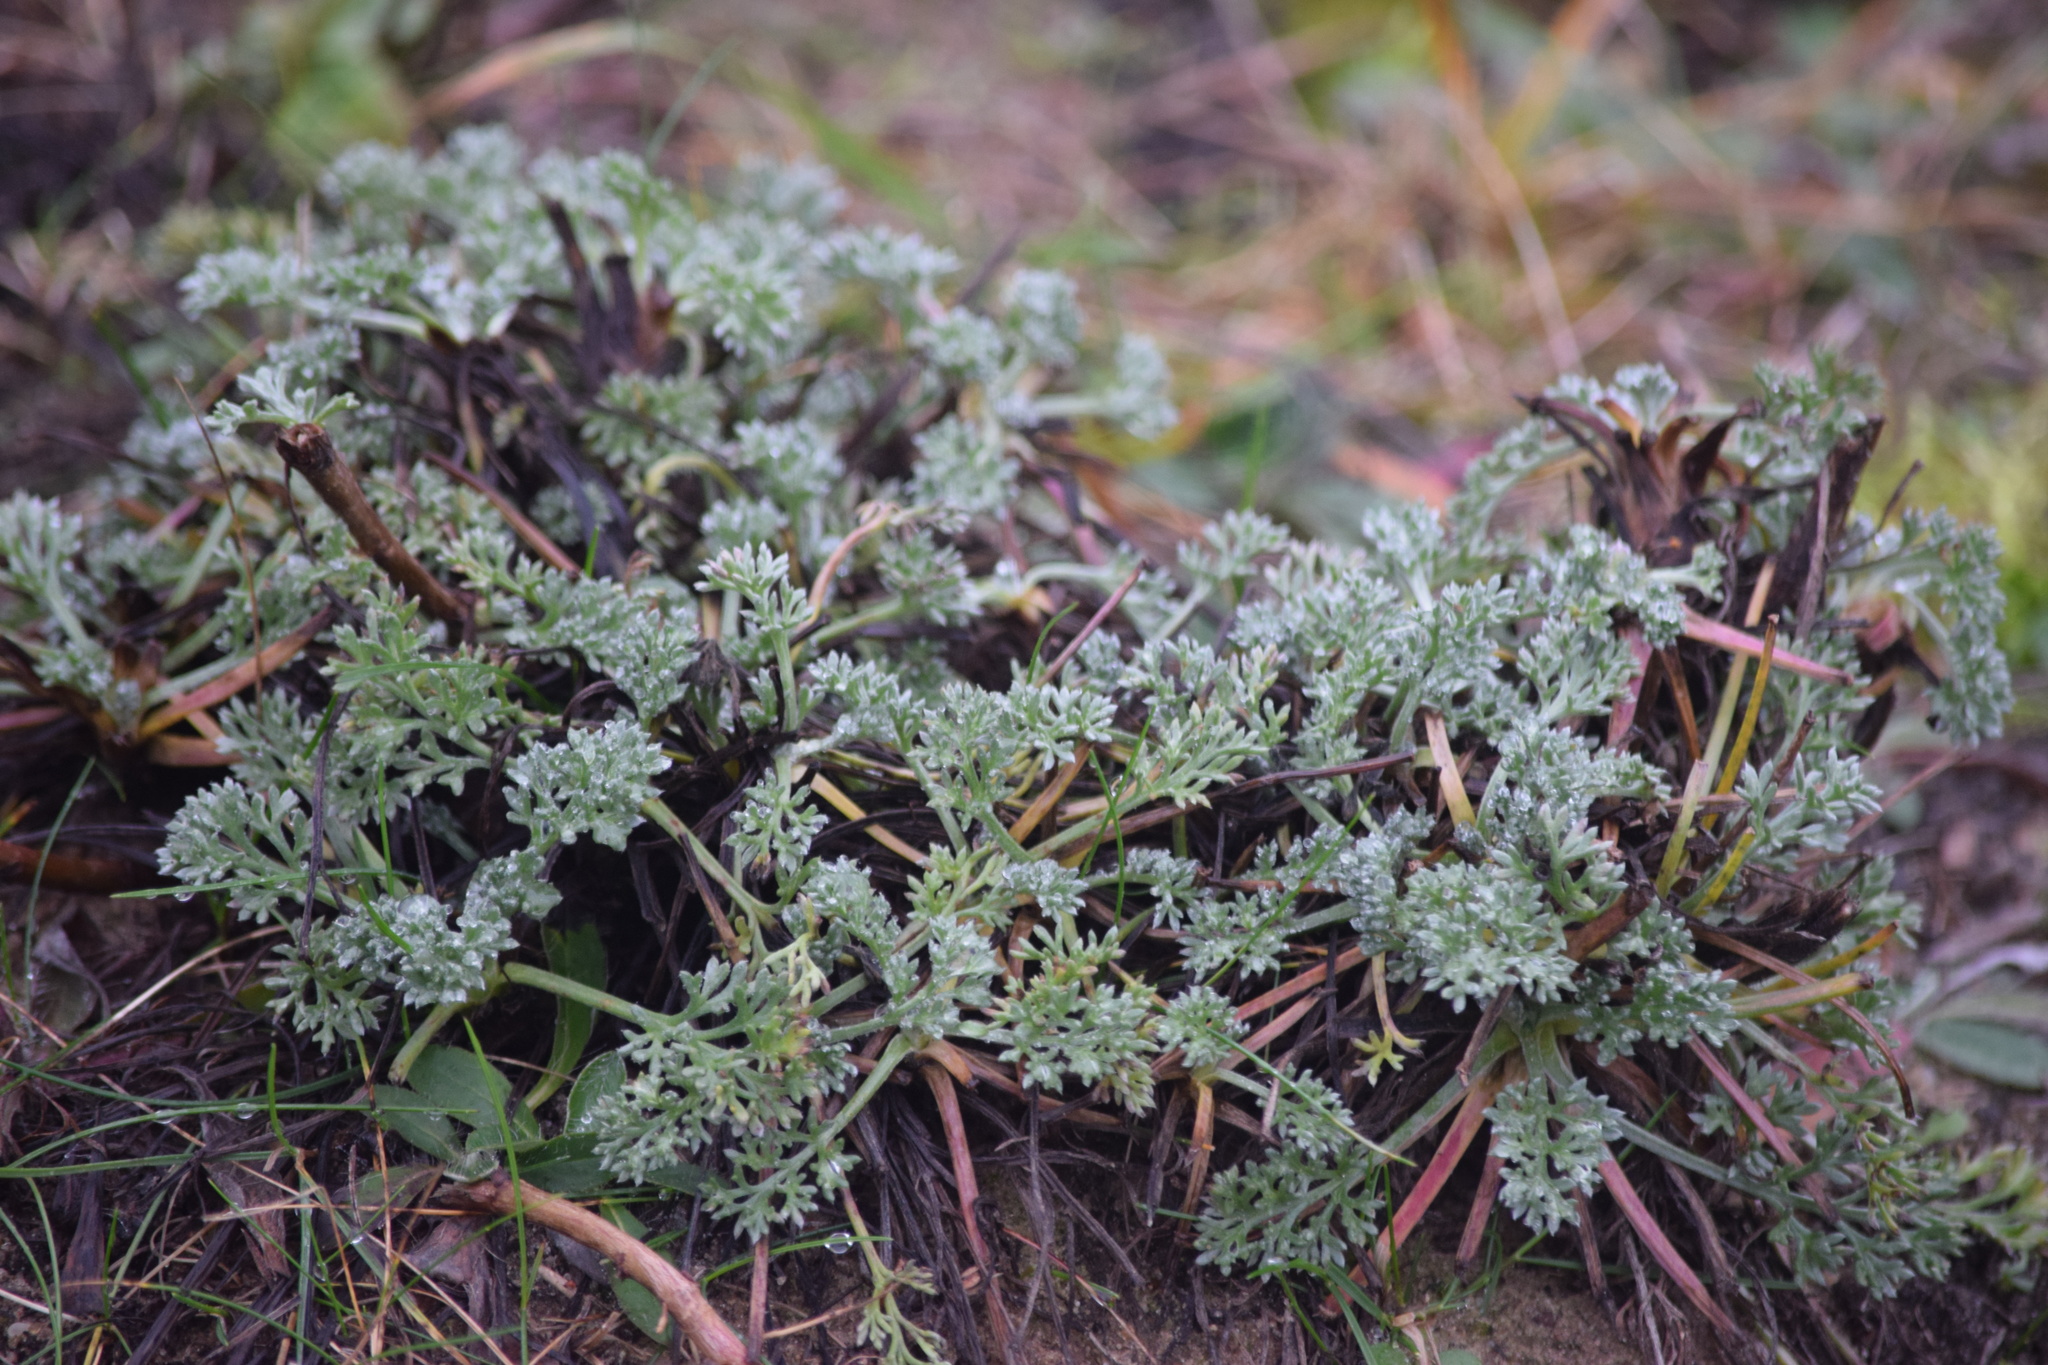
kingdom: Plantae
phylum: Tracheophyta
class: Magnoliopsida
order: Asterales
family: Asteraceae
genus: Artemisia
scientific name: Artemisia absinthium
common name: Wormwood
